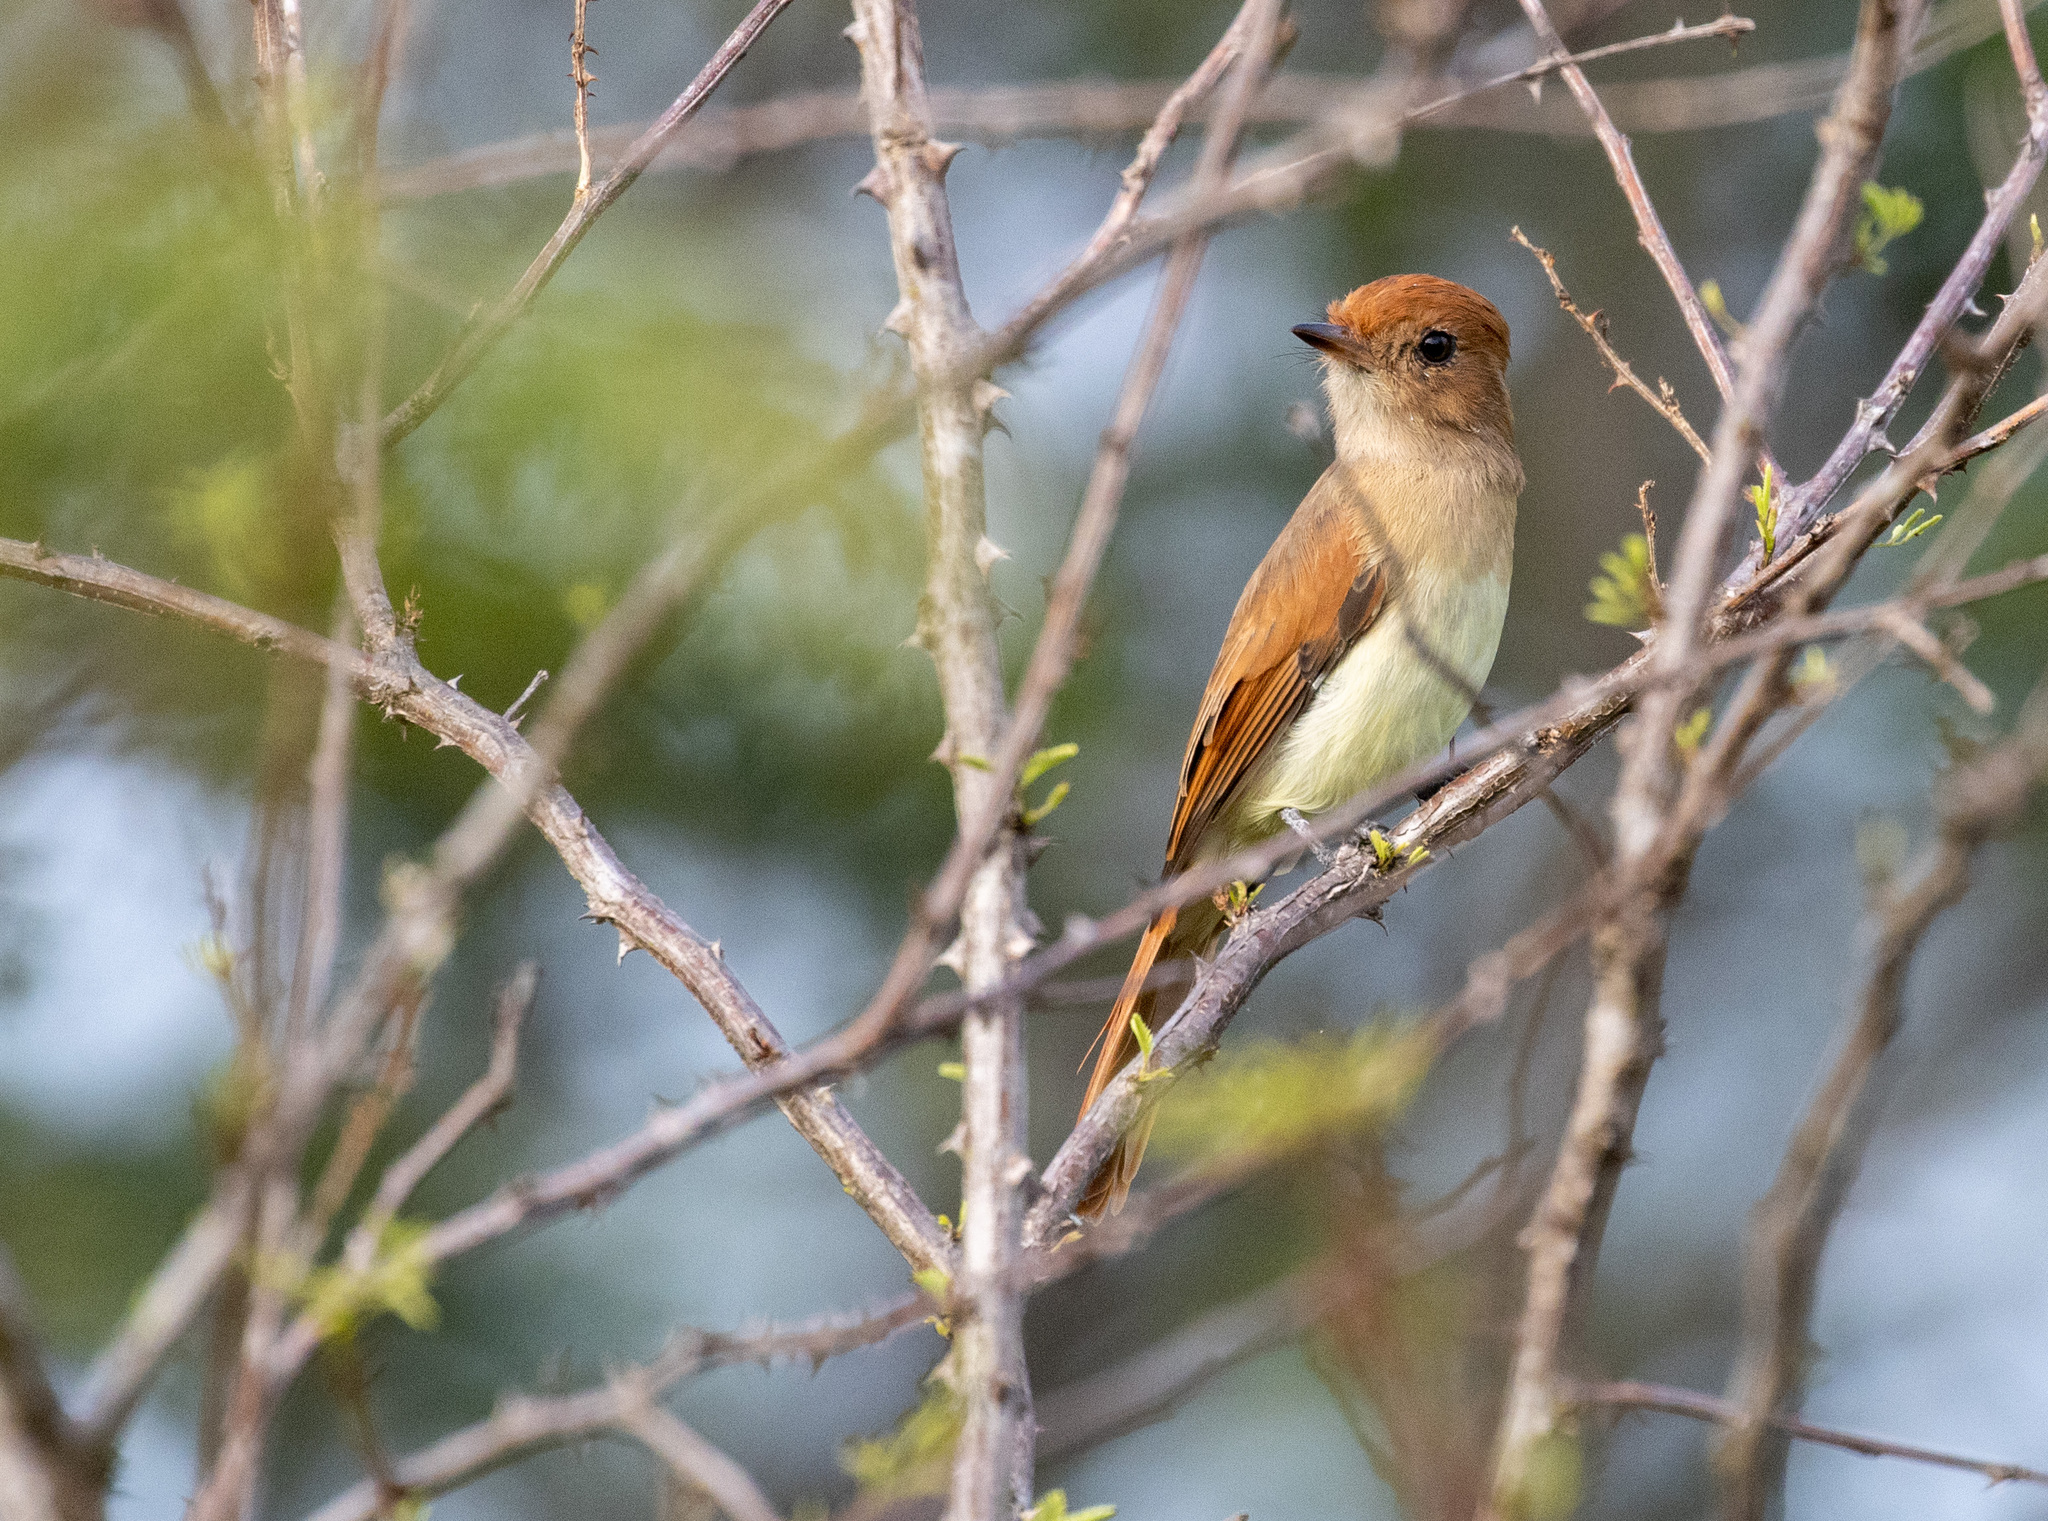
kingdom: Animalia
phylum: Chordata
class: Aves
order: Passeriformes
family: Tyrannidae
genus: Casiornis
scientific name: Casiornis fuscus
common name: Ash-throated casiornis
